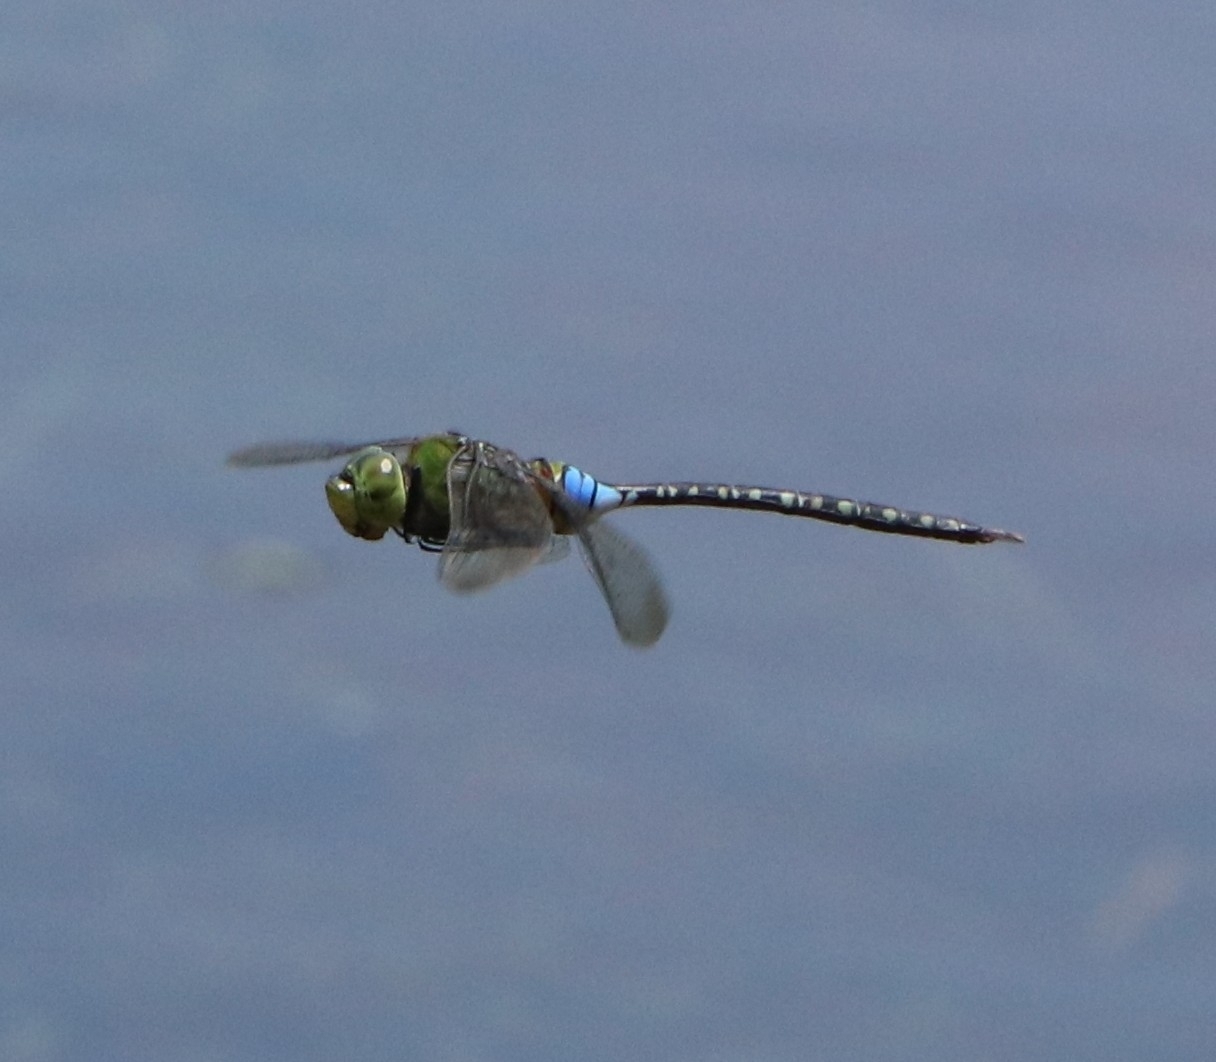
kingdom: Animalia
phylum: Arthropoda
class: Insecta
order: Odonata
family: Aeshnidae
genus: Anax
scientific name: Anax guttatus
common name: Emperor
